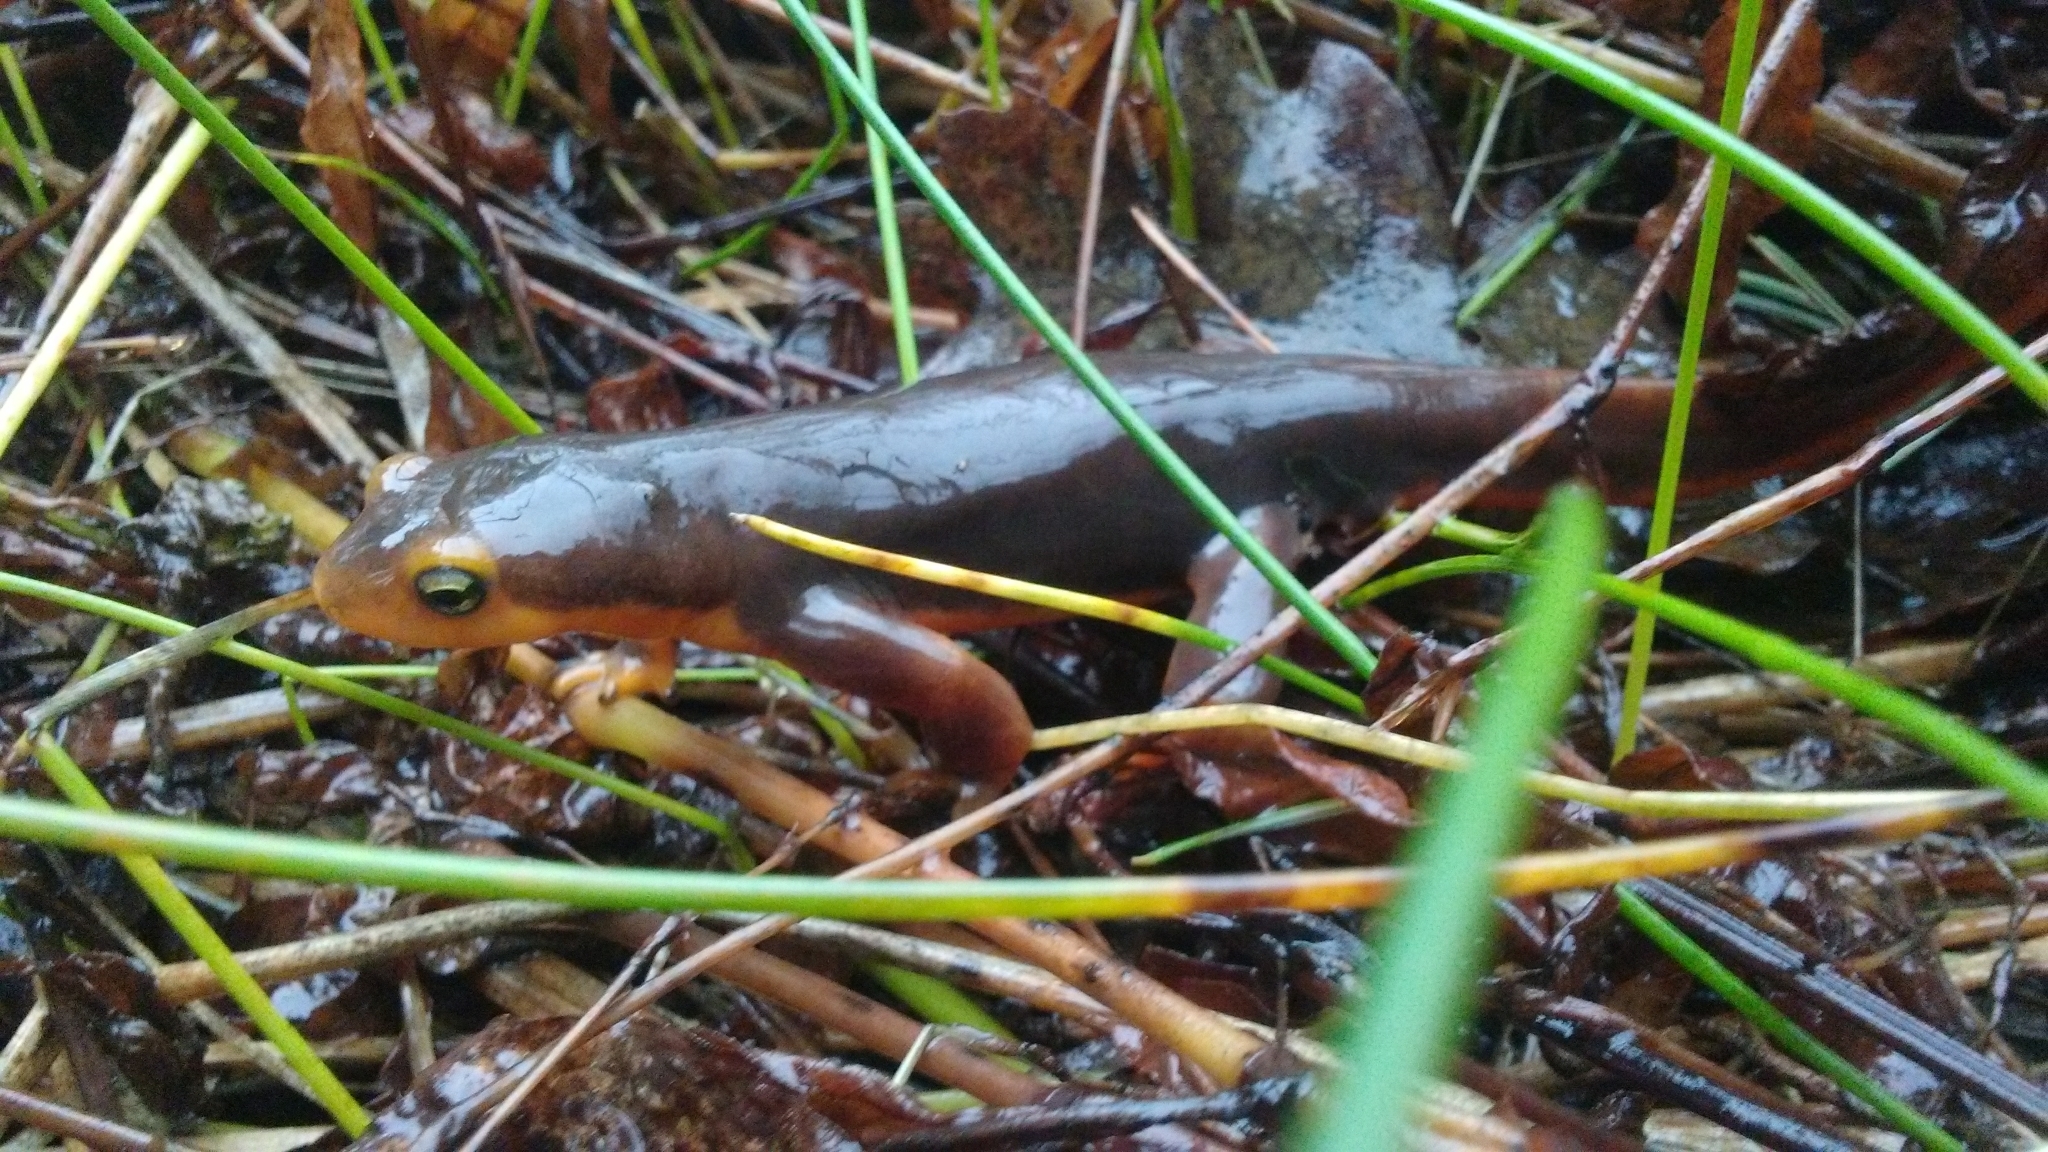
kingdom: Animalia
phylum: Chordata
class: Amphibia
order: Caudata
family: Salamandridae
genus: Taricha
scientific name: Taricha torosa
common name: California newt
